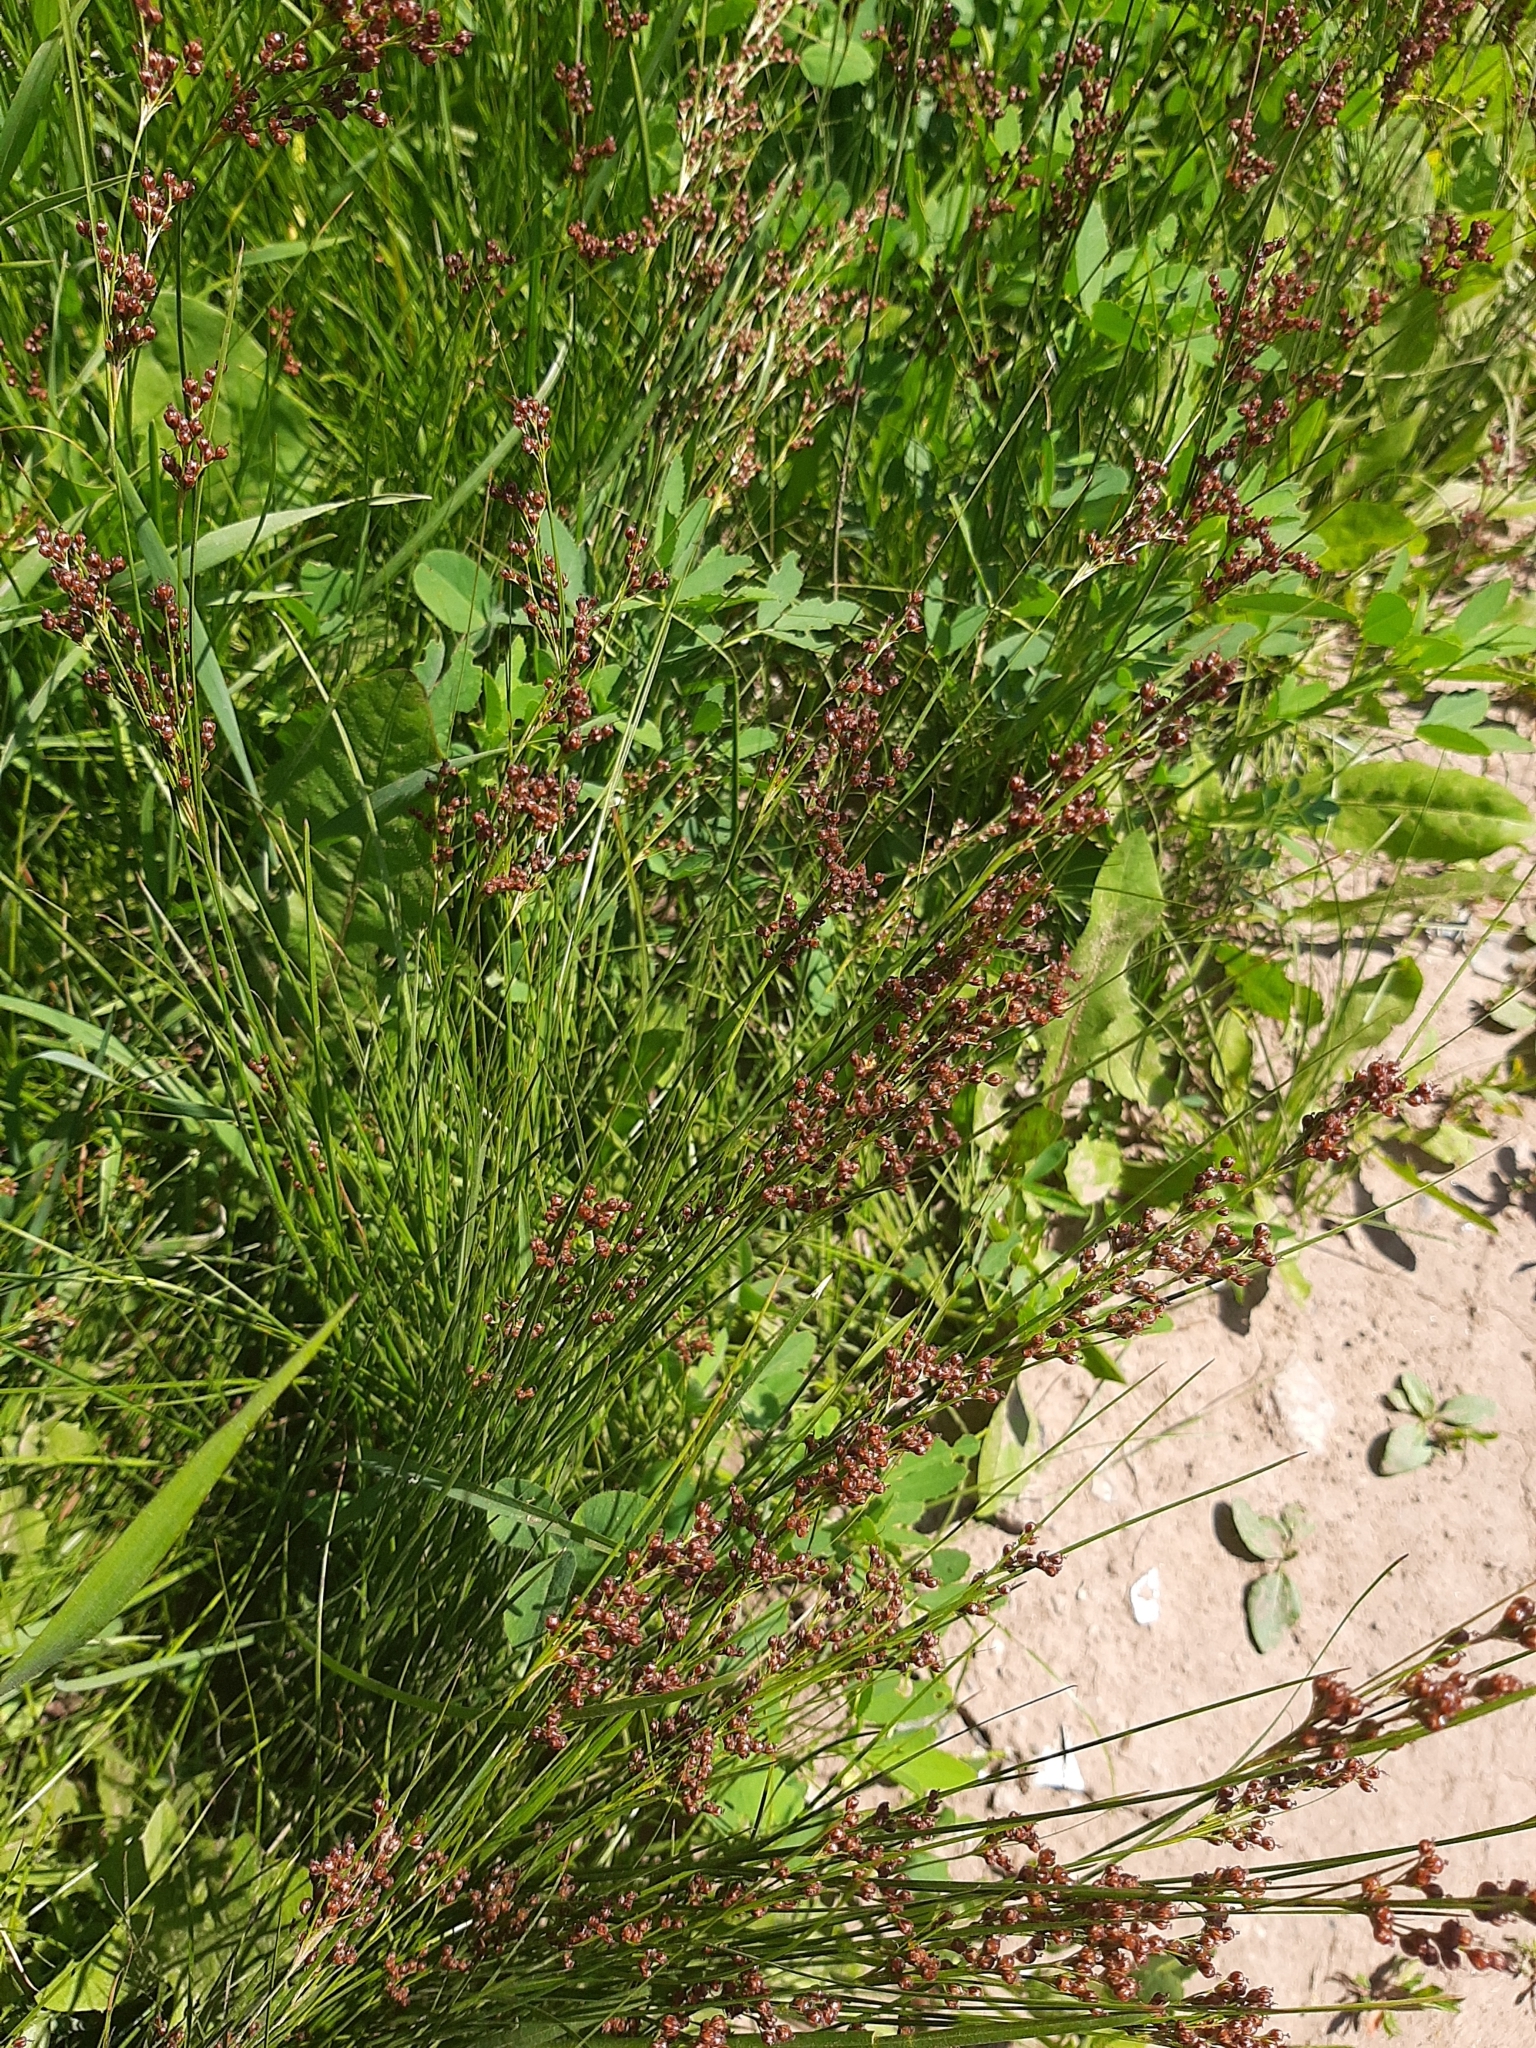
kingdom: Plantae
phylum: Tracheophyta
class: Liliopsida
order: Poales
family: Juncaceae
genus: Juncus
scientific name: Juncus compressus
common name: Round-fruited rush
